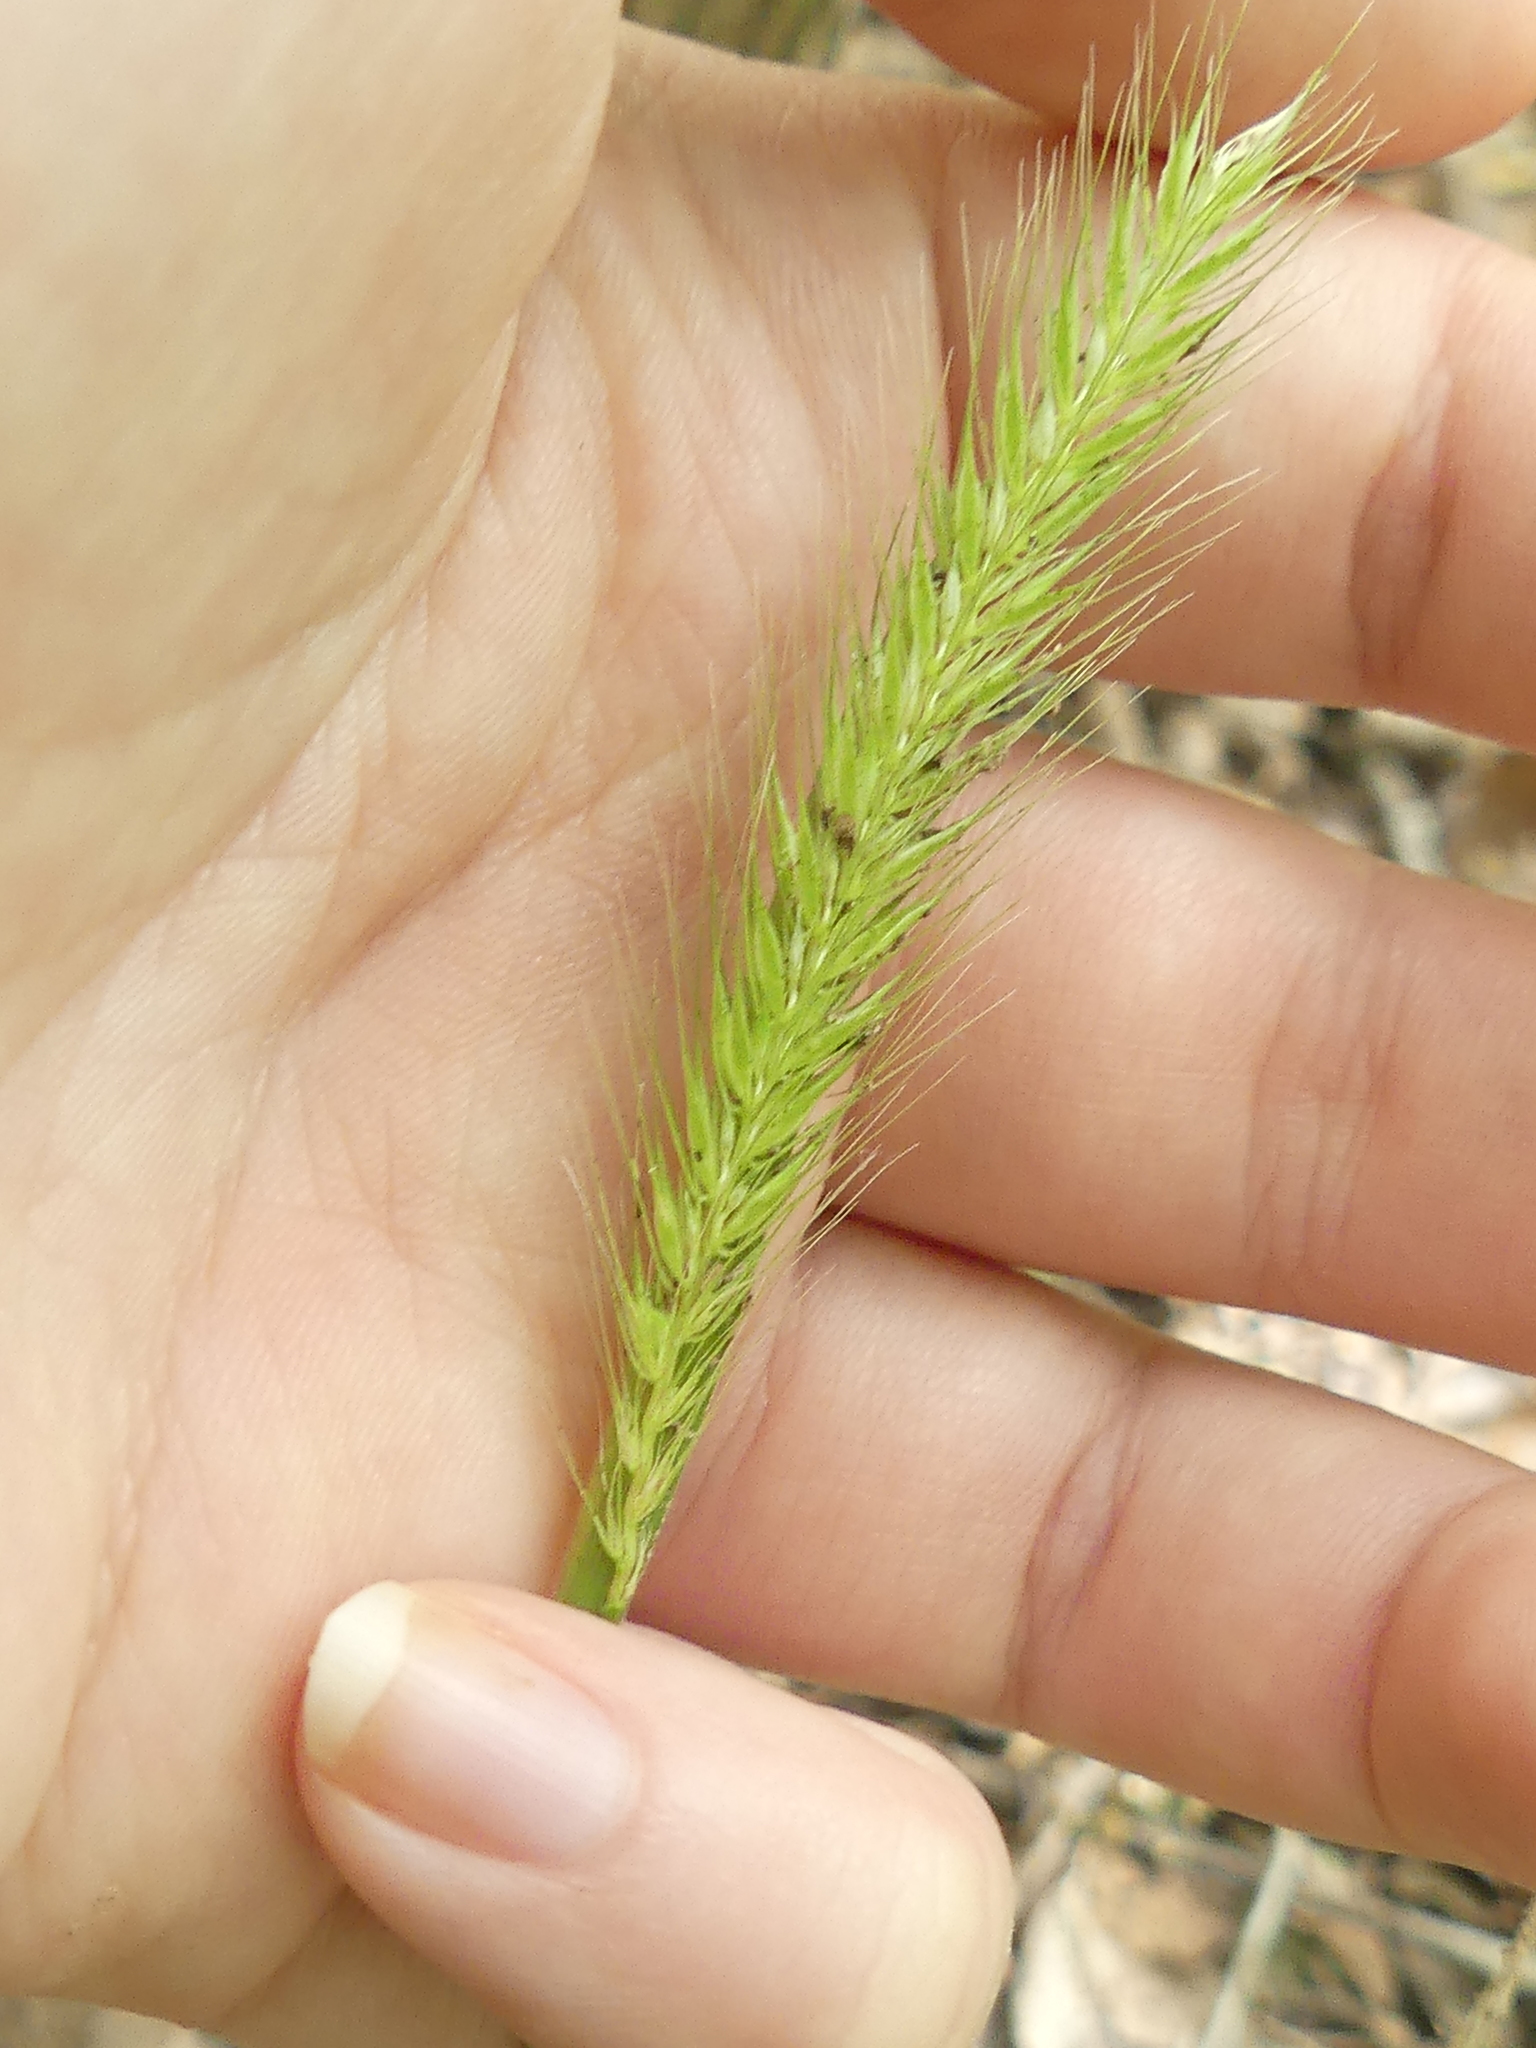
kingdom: Plantae
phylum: Tracheophyta
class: Liliopsida
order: Poales
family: Poaceae
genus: Hordeum
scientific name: Hordeum pusillum
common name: Little barley
